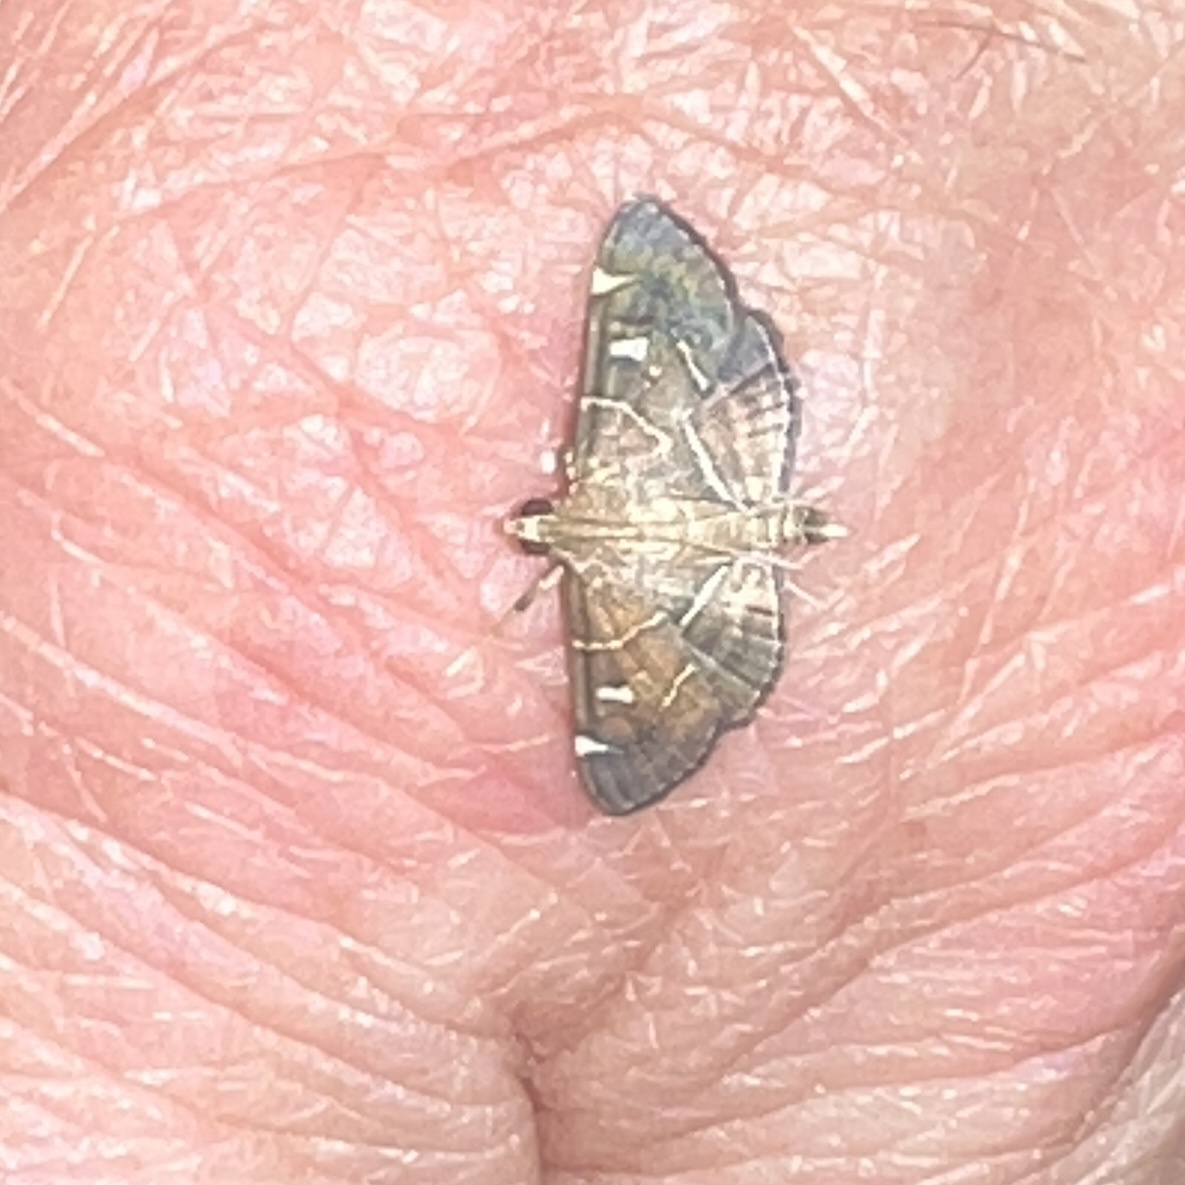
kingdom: Animalia
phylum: Arthropoda
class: Insecta
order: Lepidoptera
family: Crambidae
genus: Lamprosema
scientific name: Lamprosema victoriae
